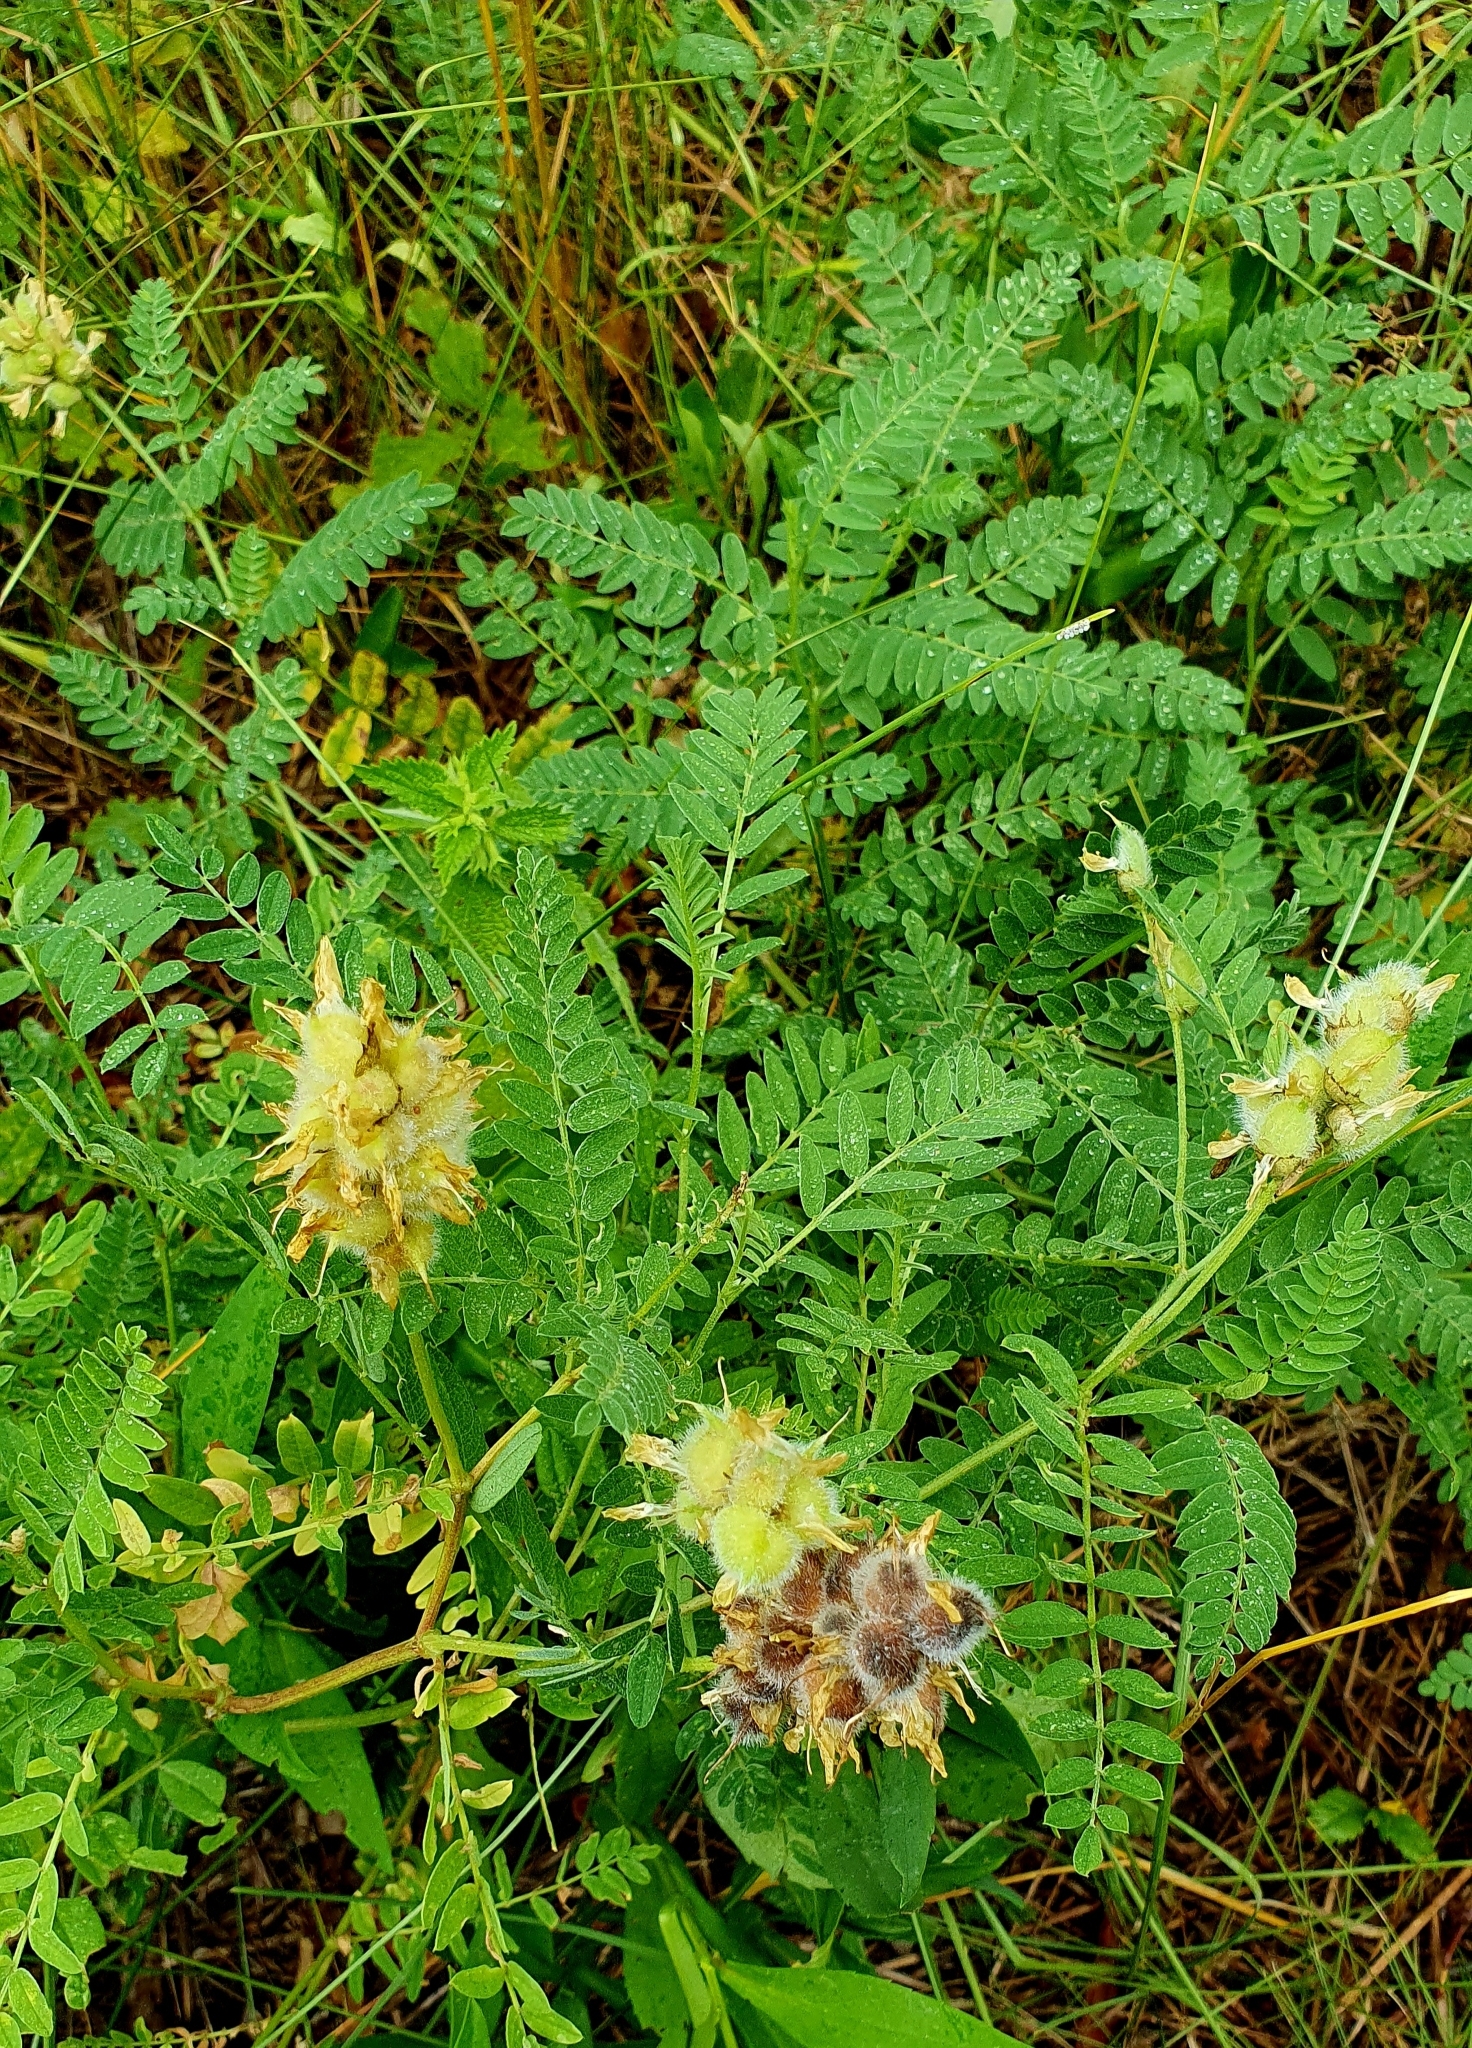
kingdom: Plantae
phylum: Tracheophyta
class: Magnoliopsida
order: Fabales
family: Fabaceae
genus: Astragalus
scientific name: Astragalus cicer
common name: Chick-pea milk-vetch
